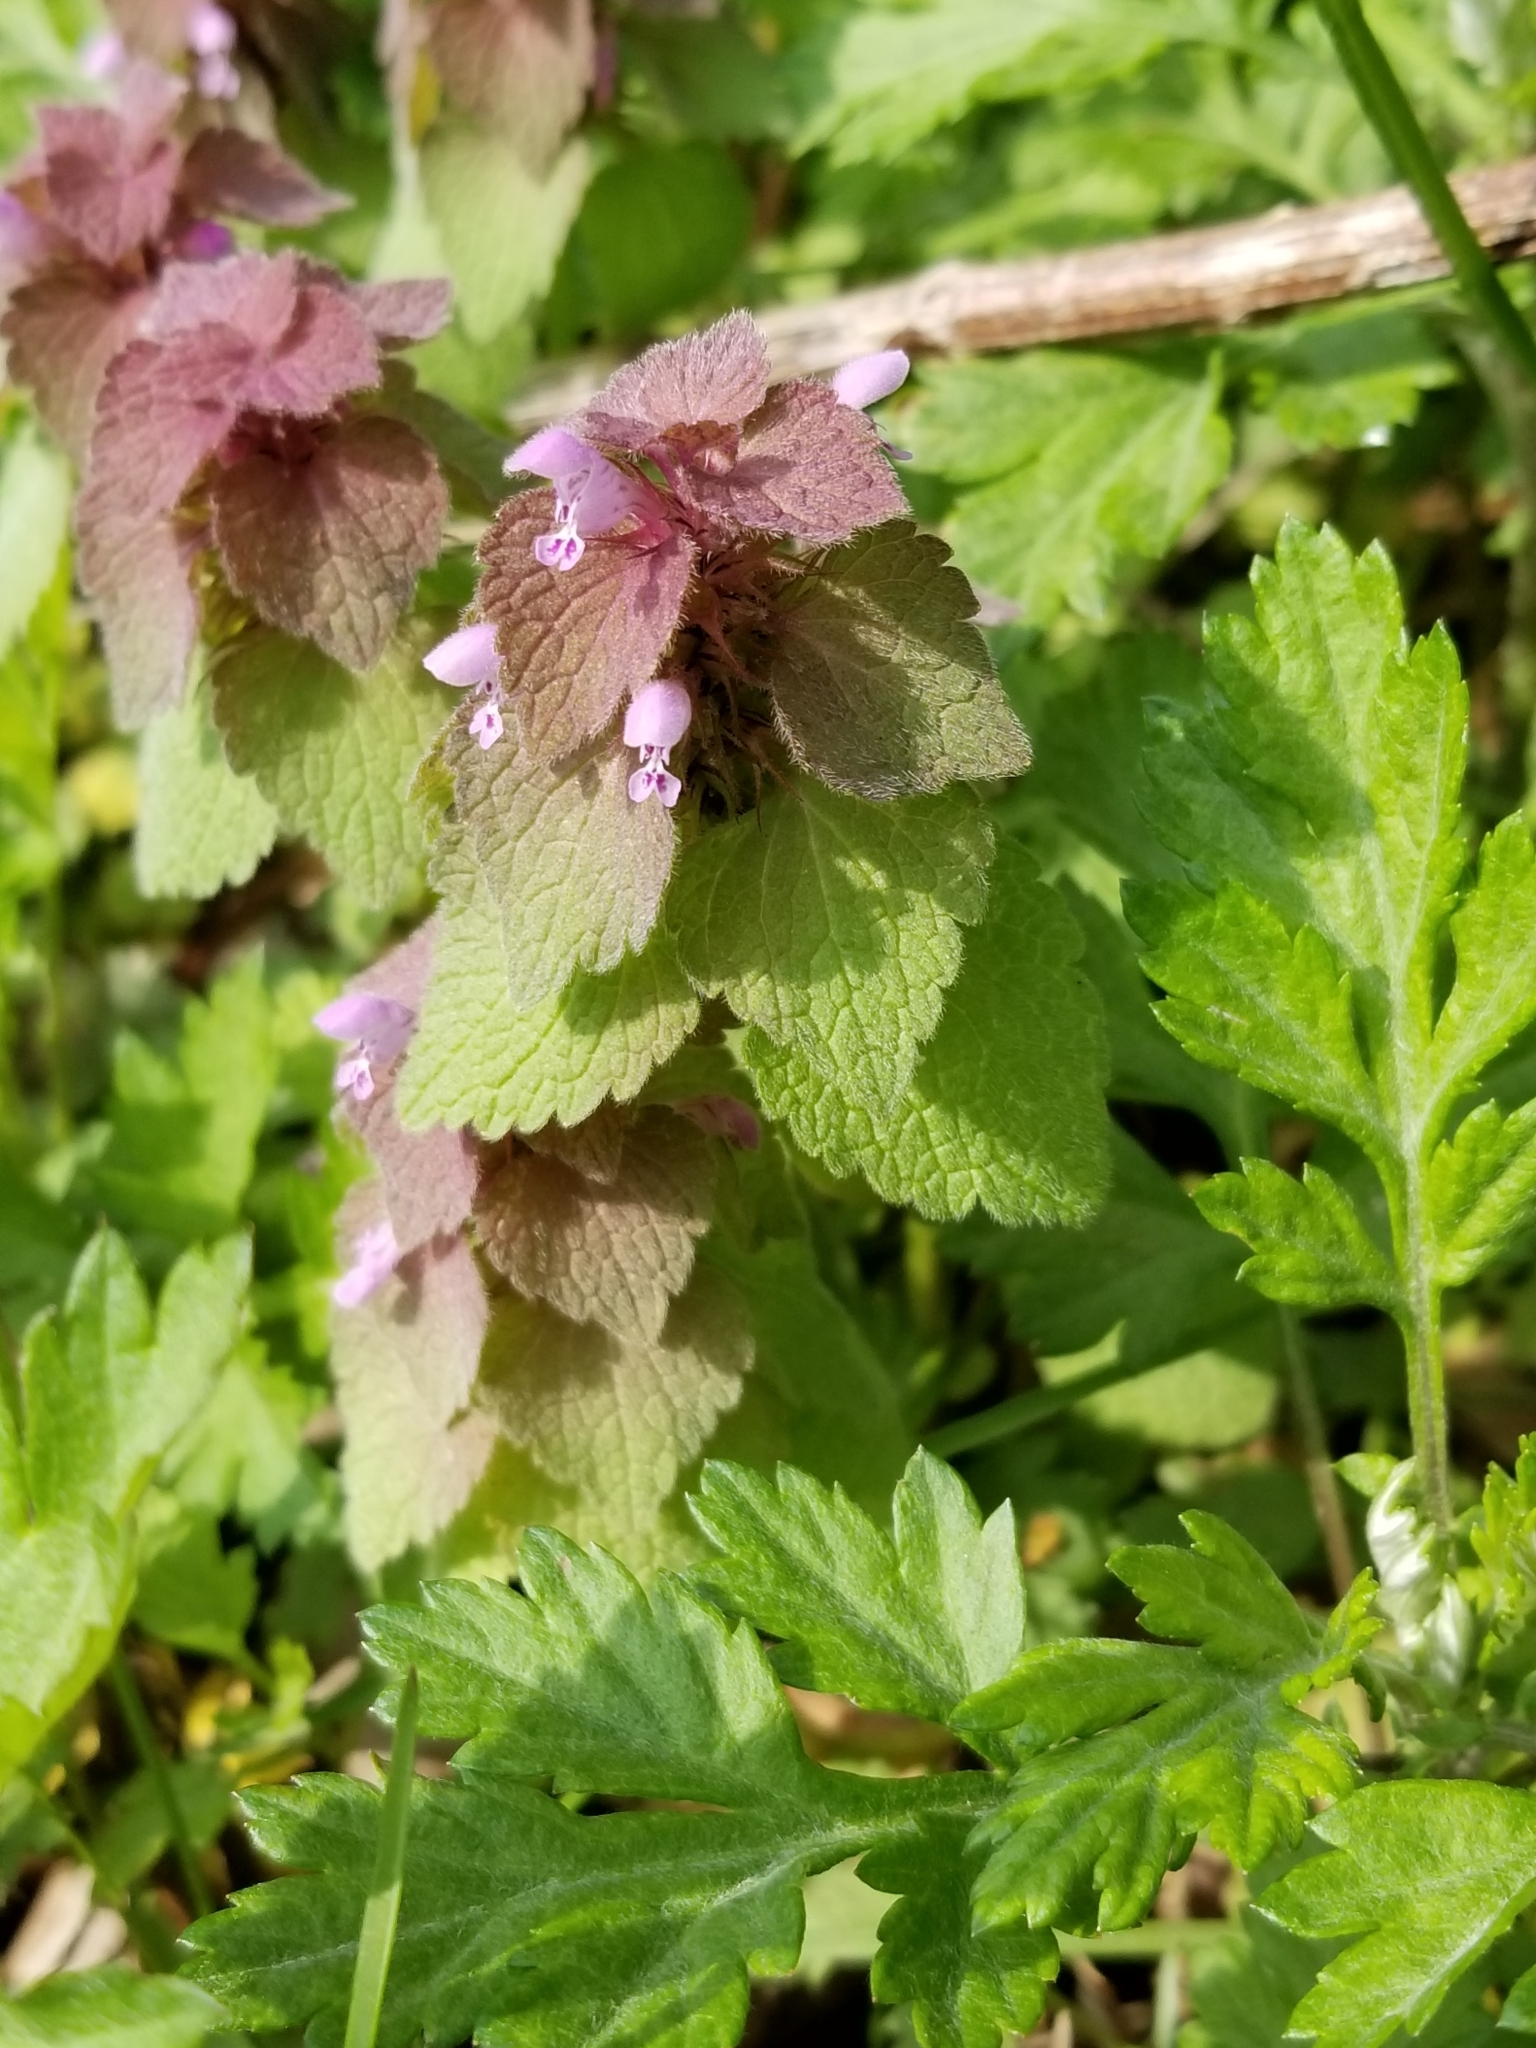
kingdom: Plantae
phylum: Tracheophyta
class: Magnoliopsida
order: Lamiales
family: Lamiaceae
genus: Lamium
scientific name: Lamium purpureum
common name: Red dead-nettle
